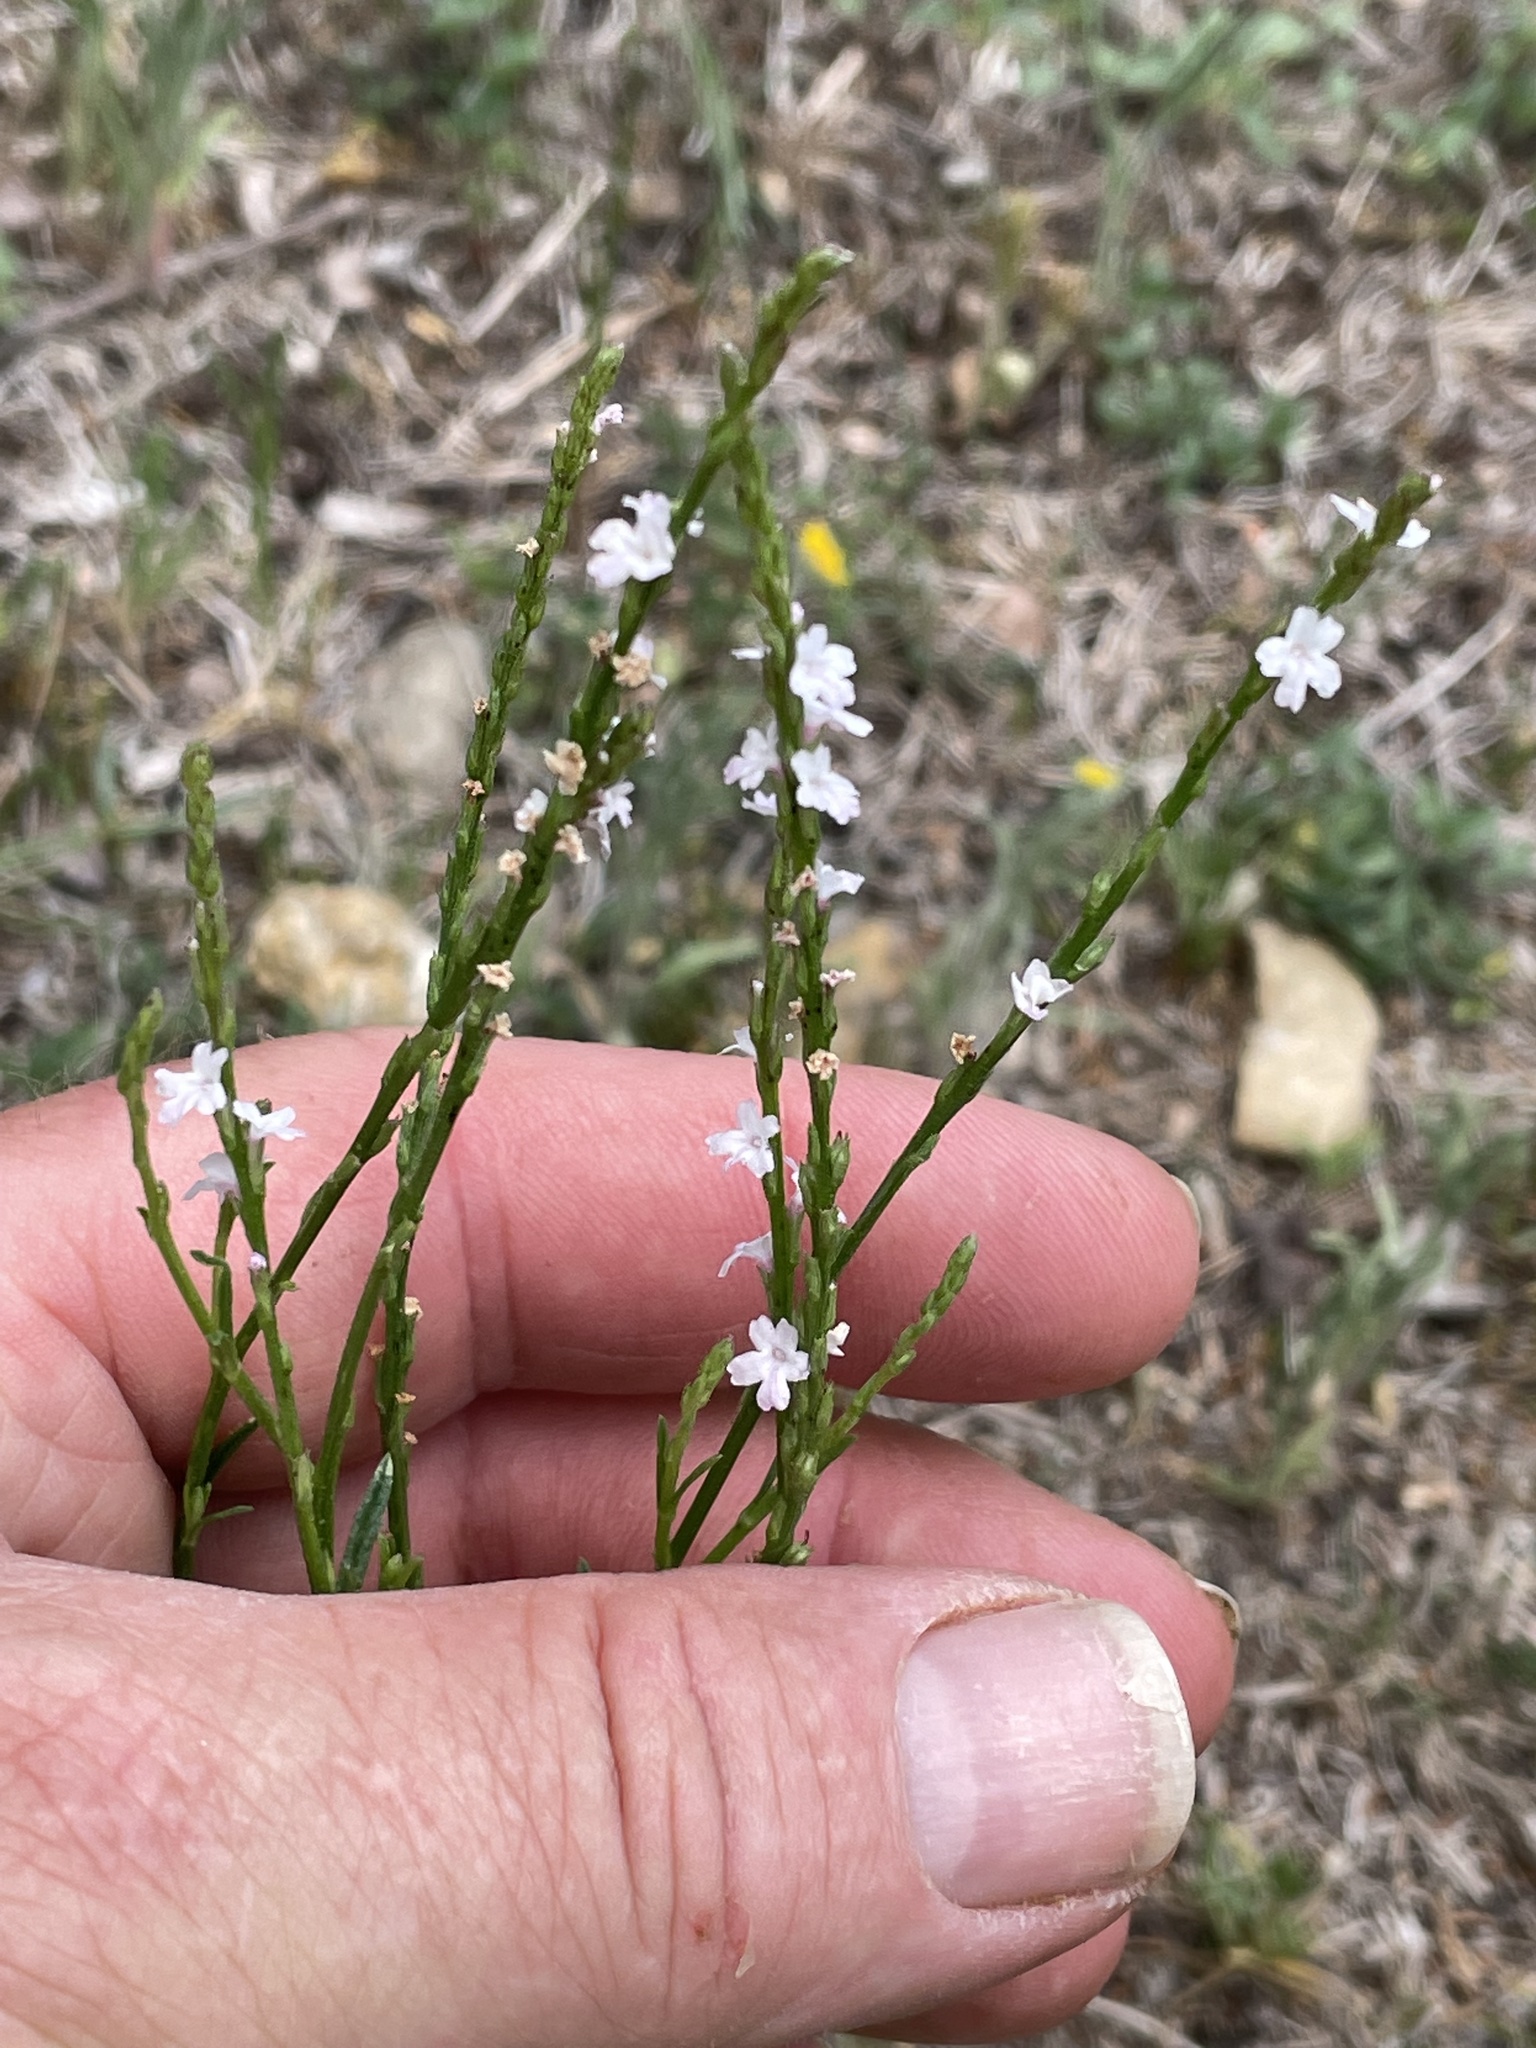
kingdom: Plantae
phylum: Tracheophyta
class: Magnoliopsida
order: Lamiales
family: Verbenaceae
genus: Verbena
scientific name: Verbena halei
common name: Texas vervain
